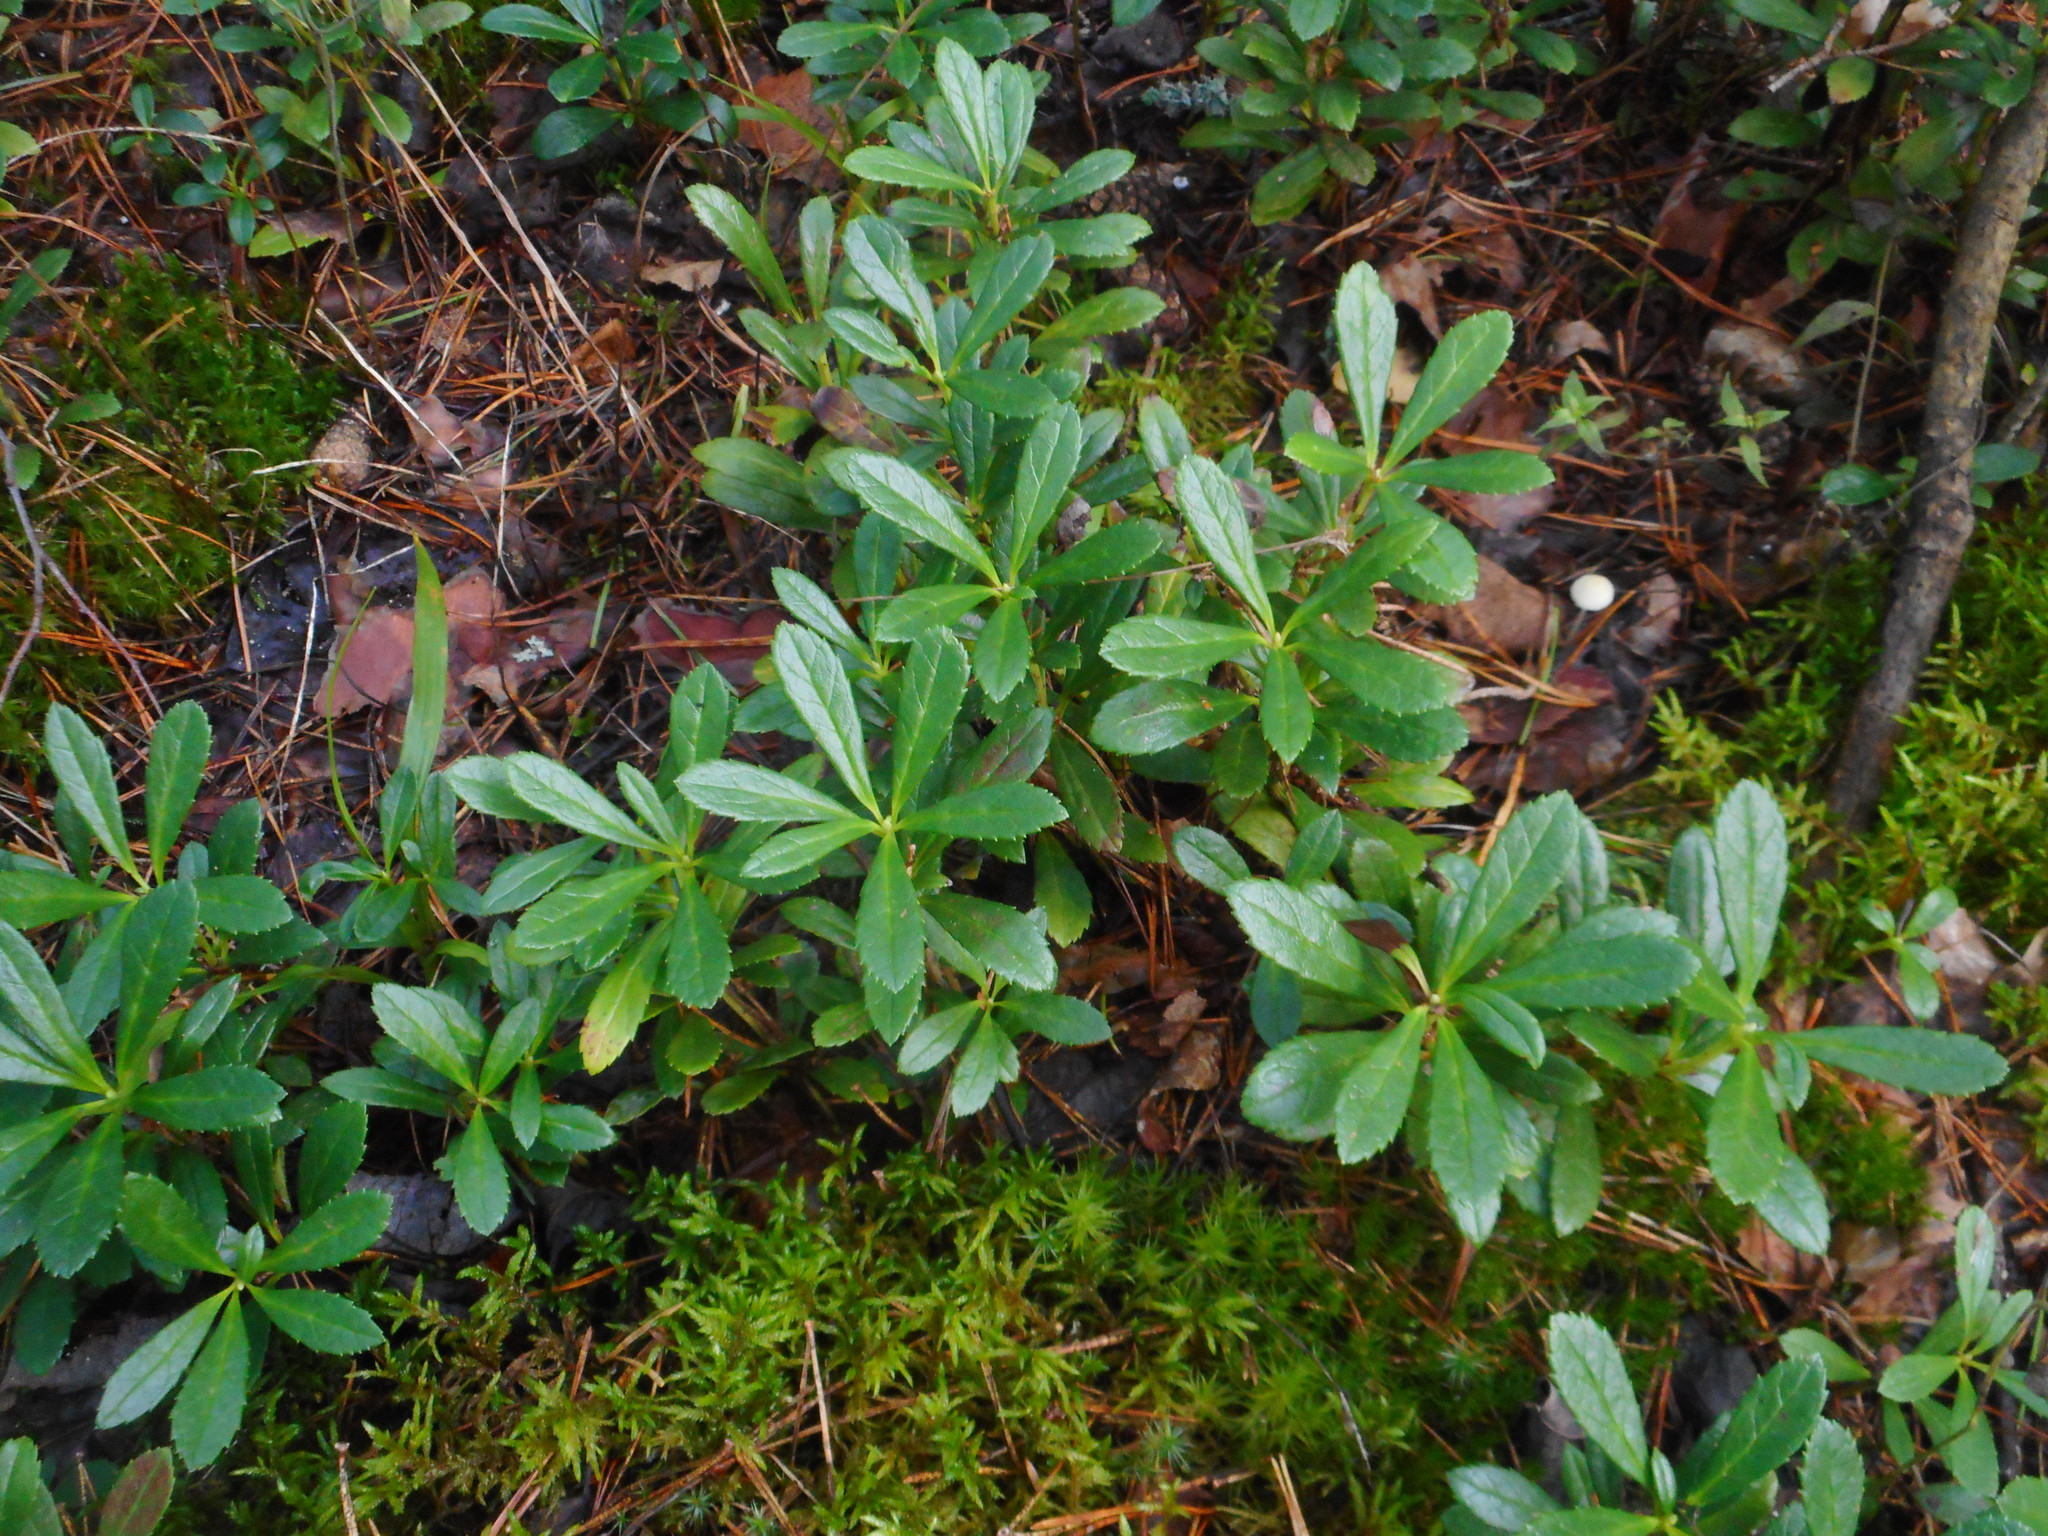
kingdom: Plantae
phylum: Tracheophyta
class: Magnoliopsida
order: Ericales
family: Ericaceae
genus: Chimaphila
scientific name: Chimaphila umbellata
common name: Pipsissewa
